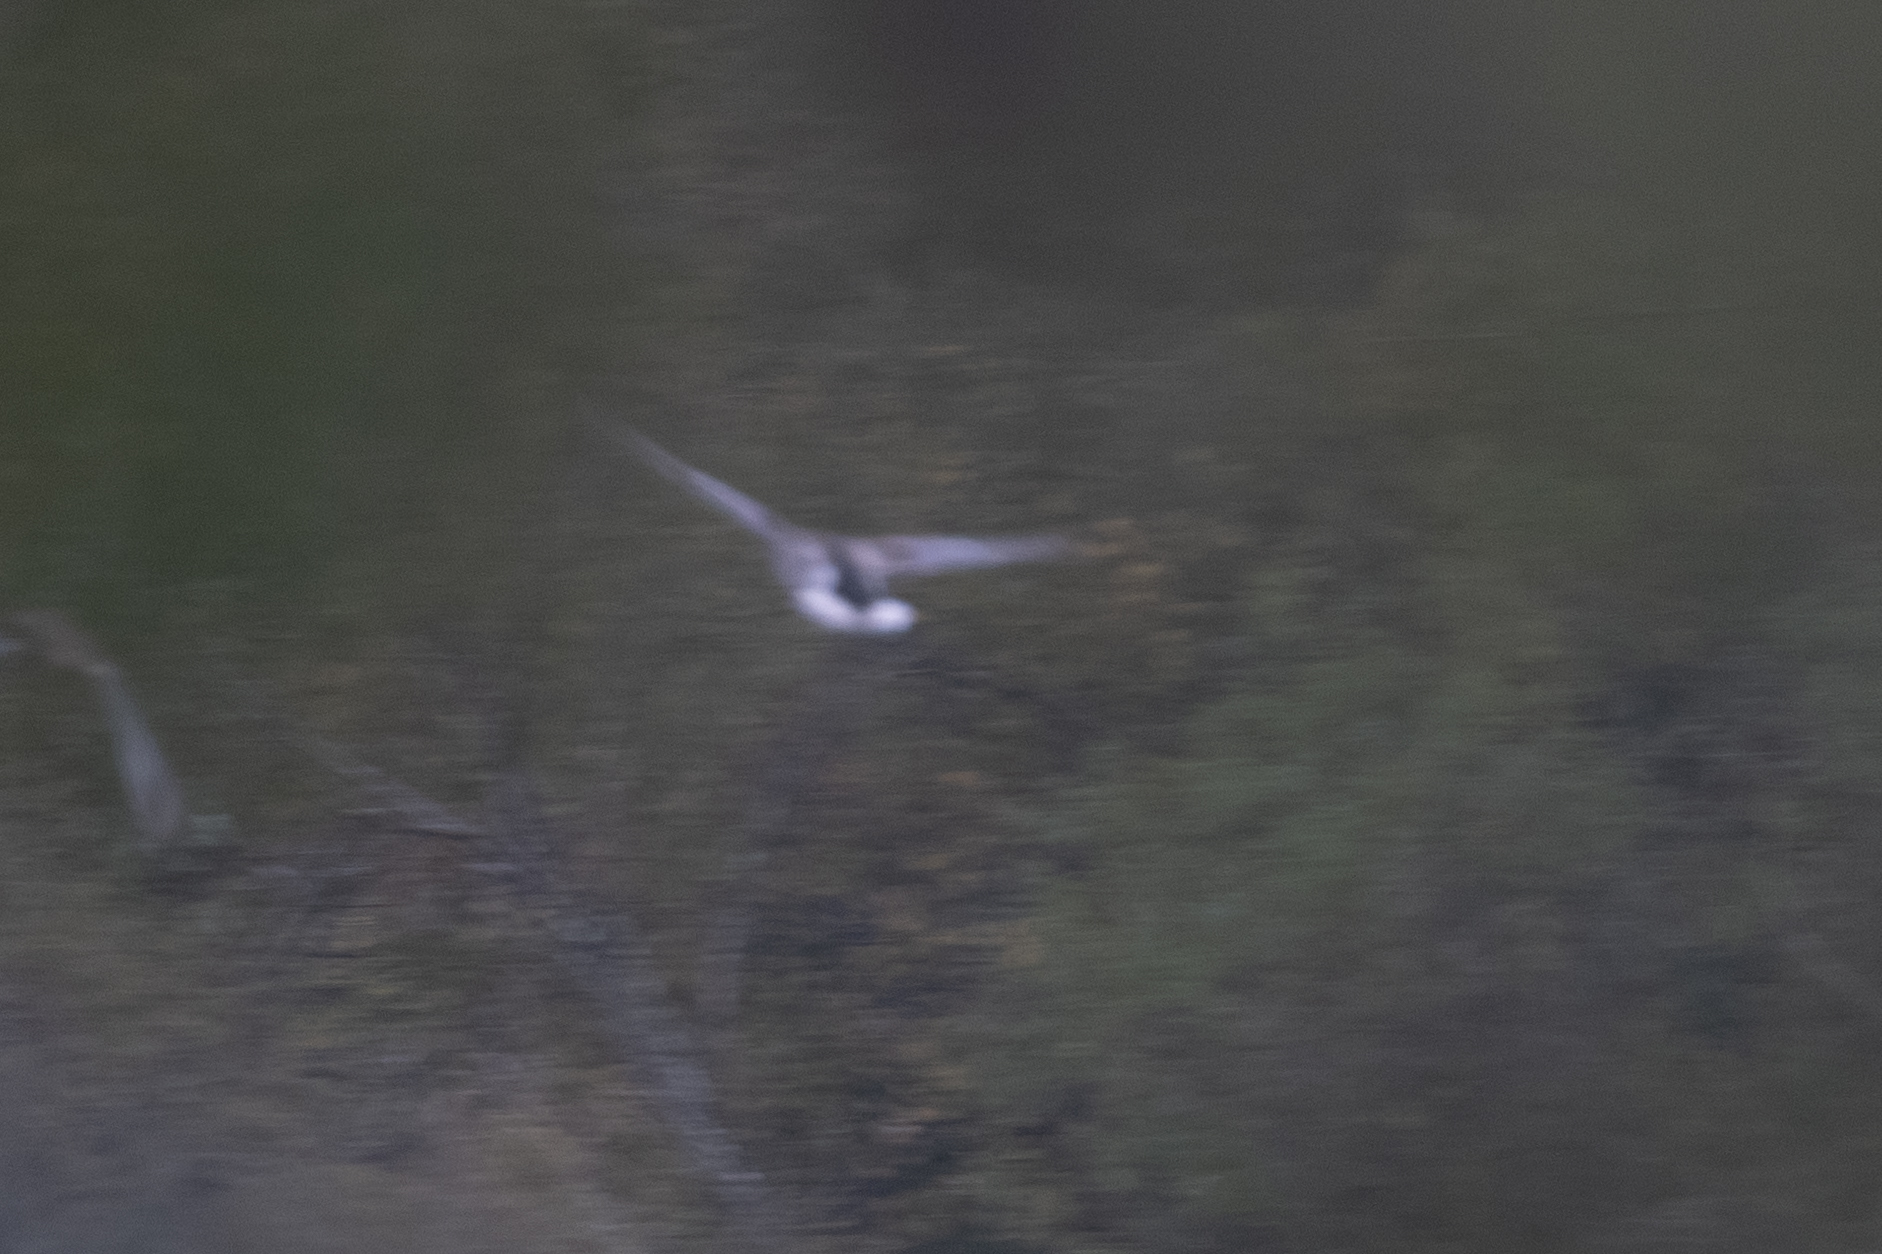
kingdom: Animalia
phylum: Chordata
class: Aves
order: Anseriformes
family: Anatidae
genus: Anas
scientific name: Anas platyrhynchos
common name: Mallard
